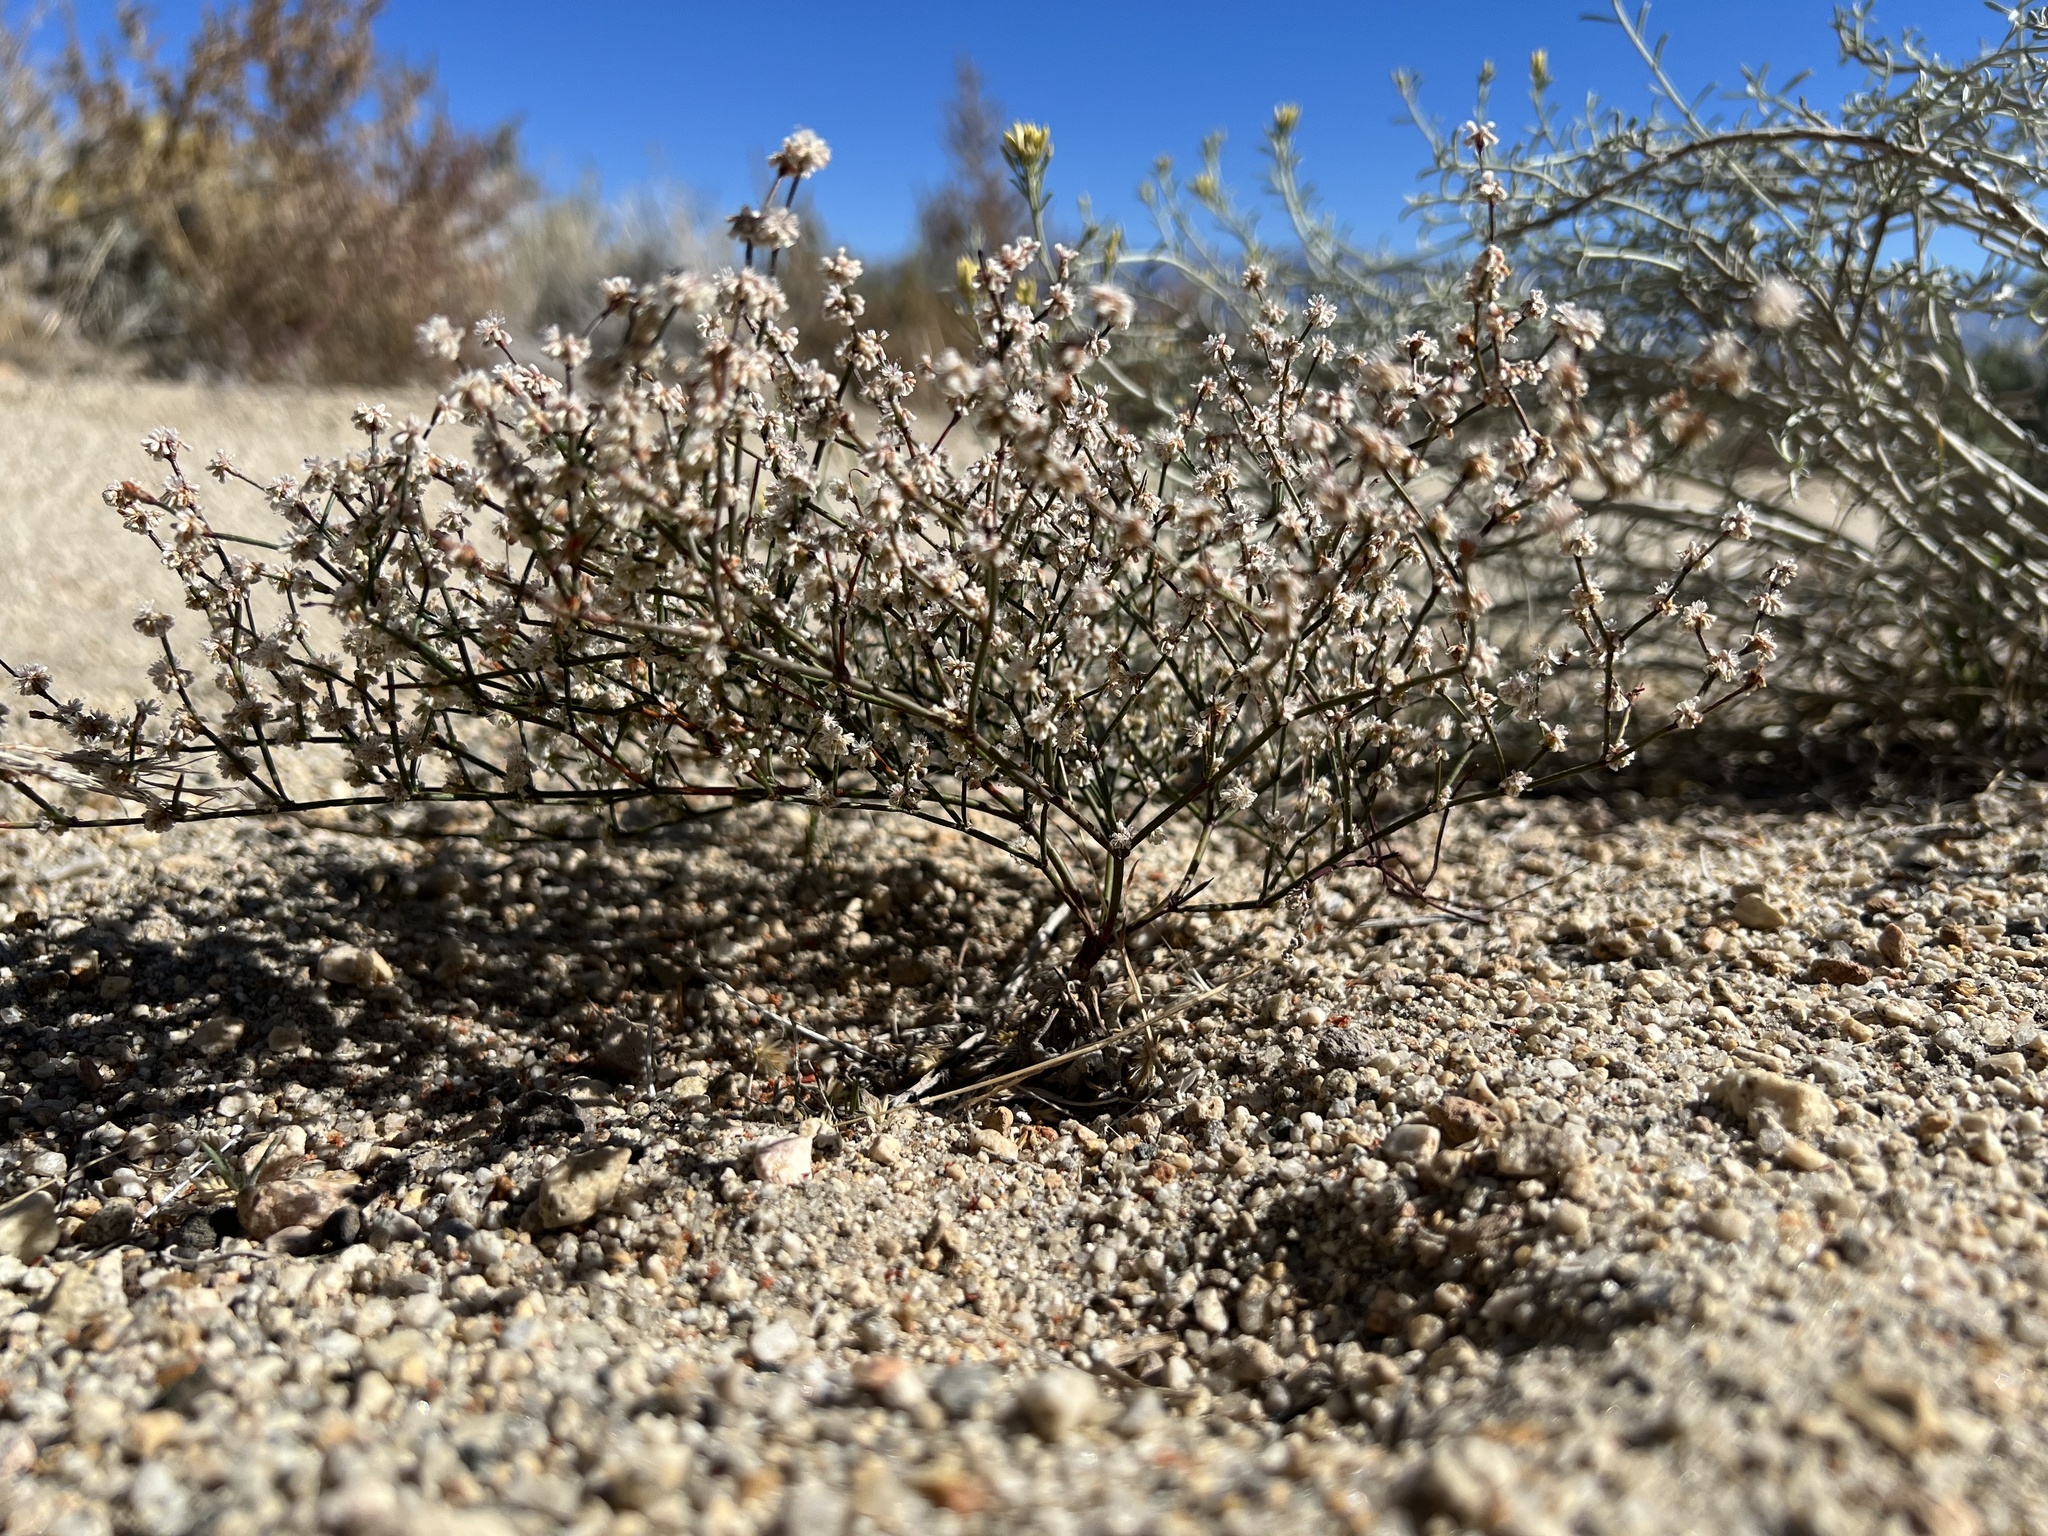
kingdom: Plantae
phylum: Tracheophyta
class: Magnoliopsida
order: Caryophyllales
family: Polygonaceae
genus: Eriogonum
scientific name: Eriogonum baileyi
